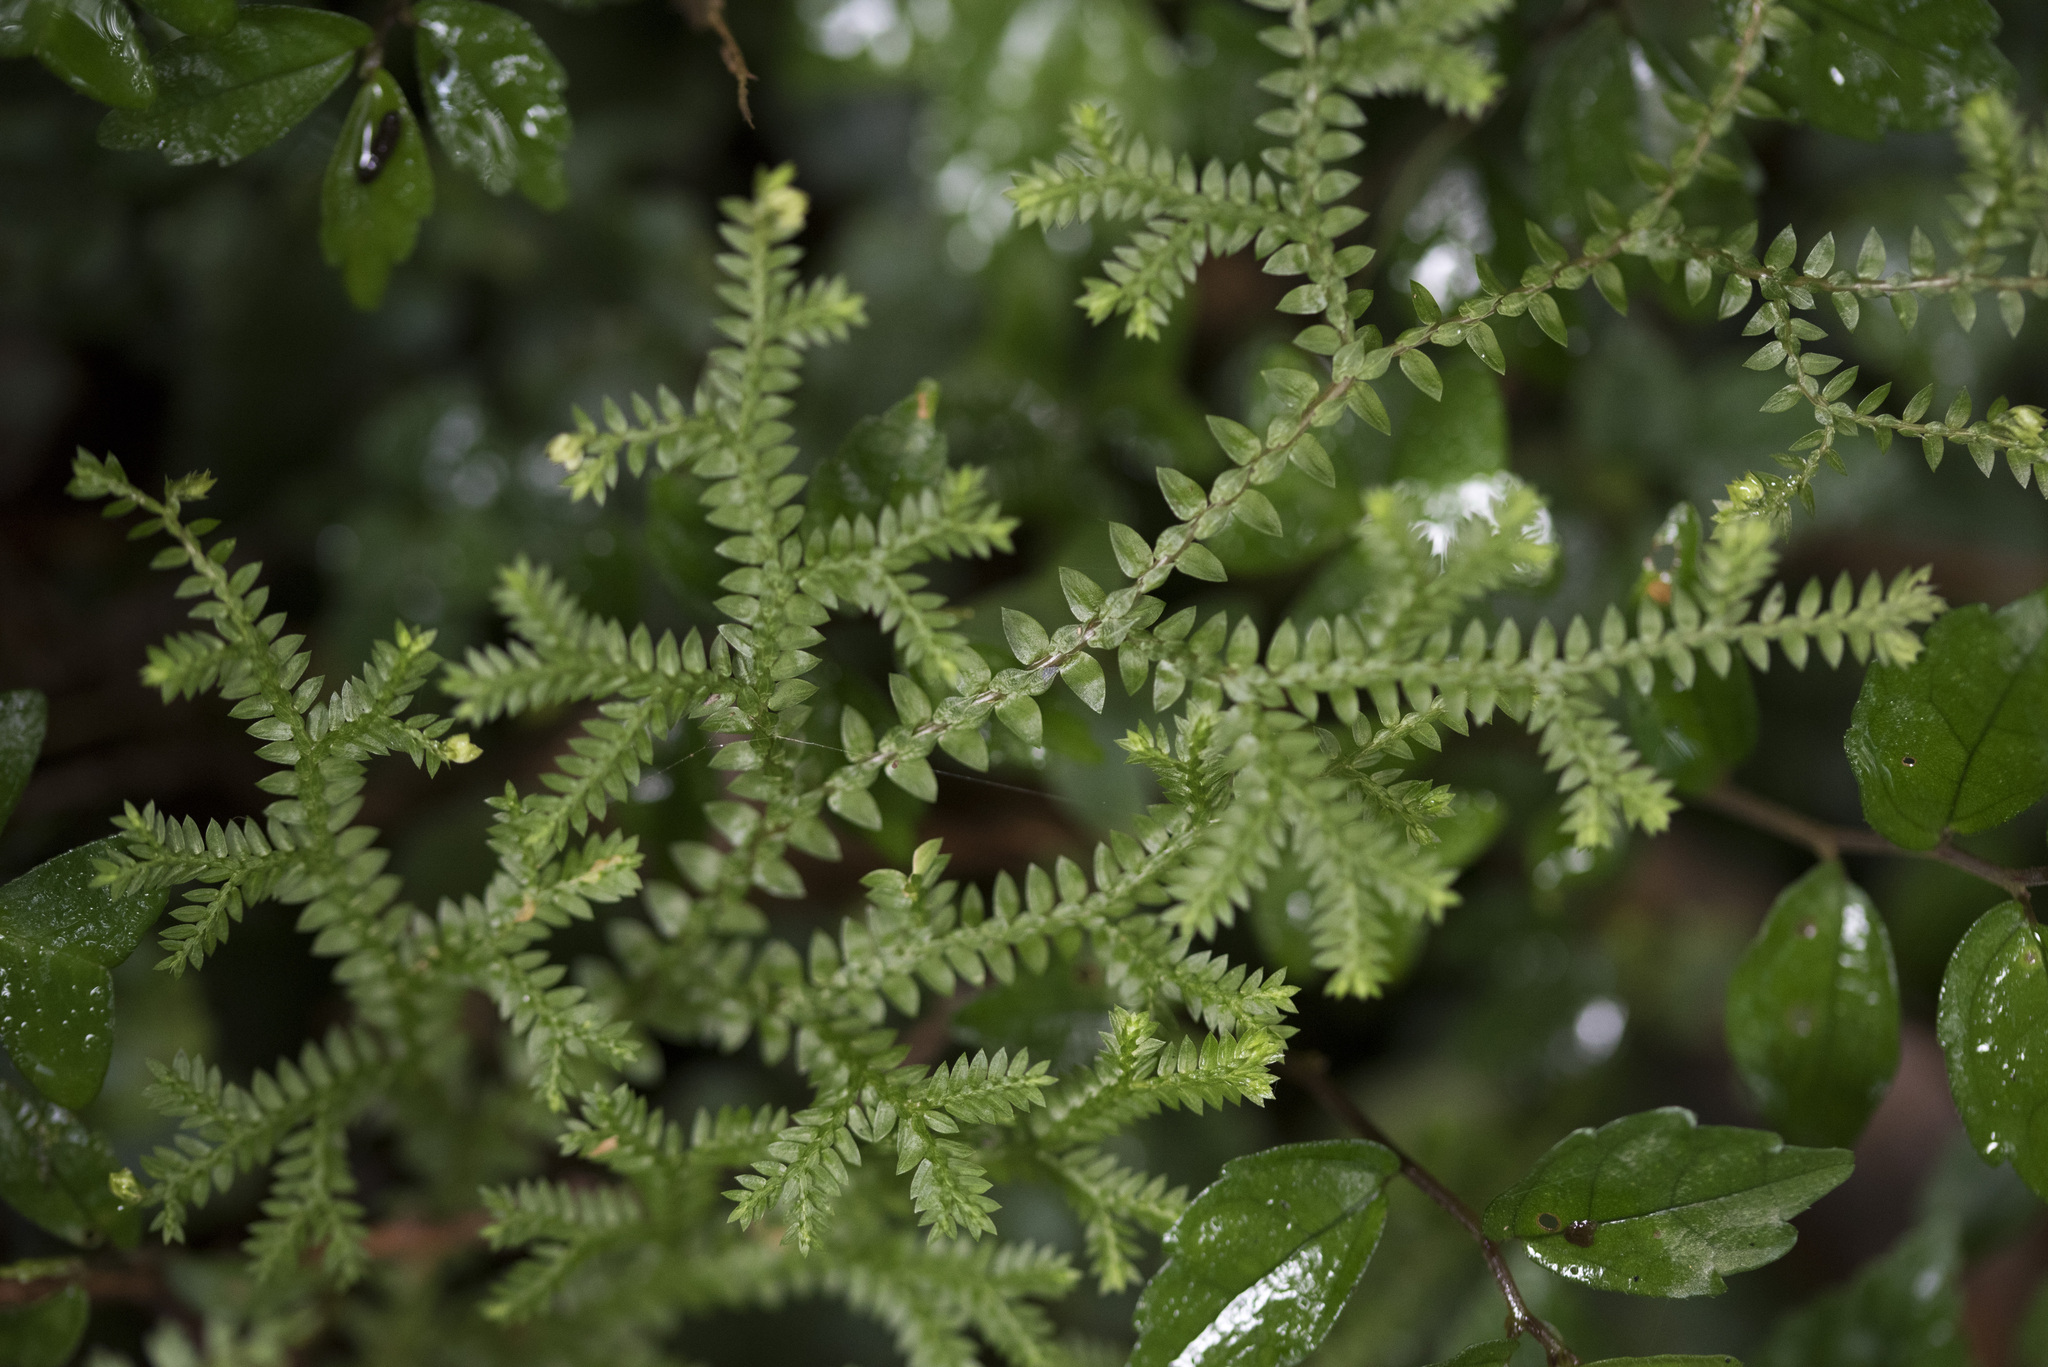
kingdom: Plantae
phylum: Tracheophyta
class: Lycopodiopsida
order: Selaginellales
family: Selaginellaceae
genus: Selaginella
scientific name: Selaginella remotifolia
